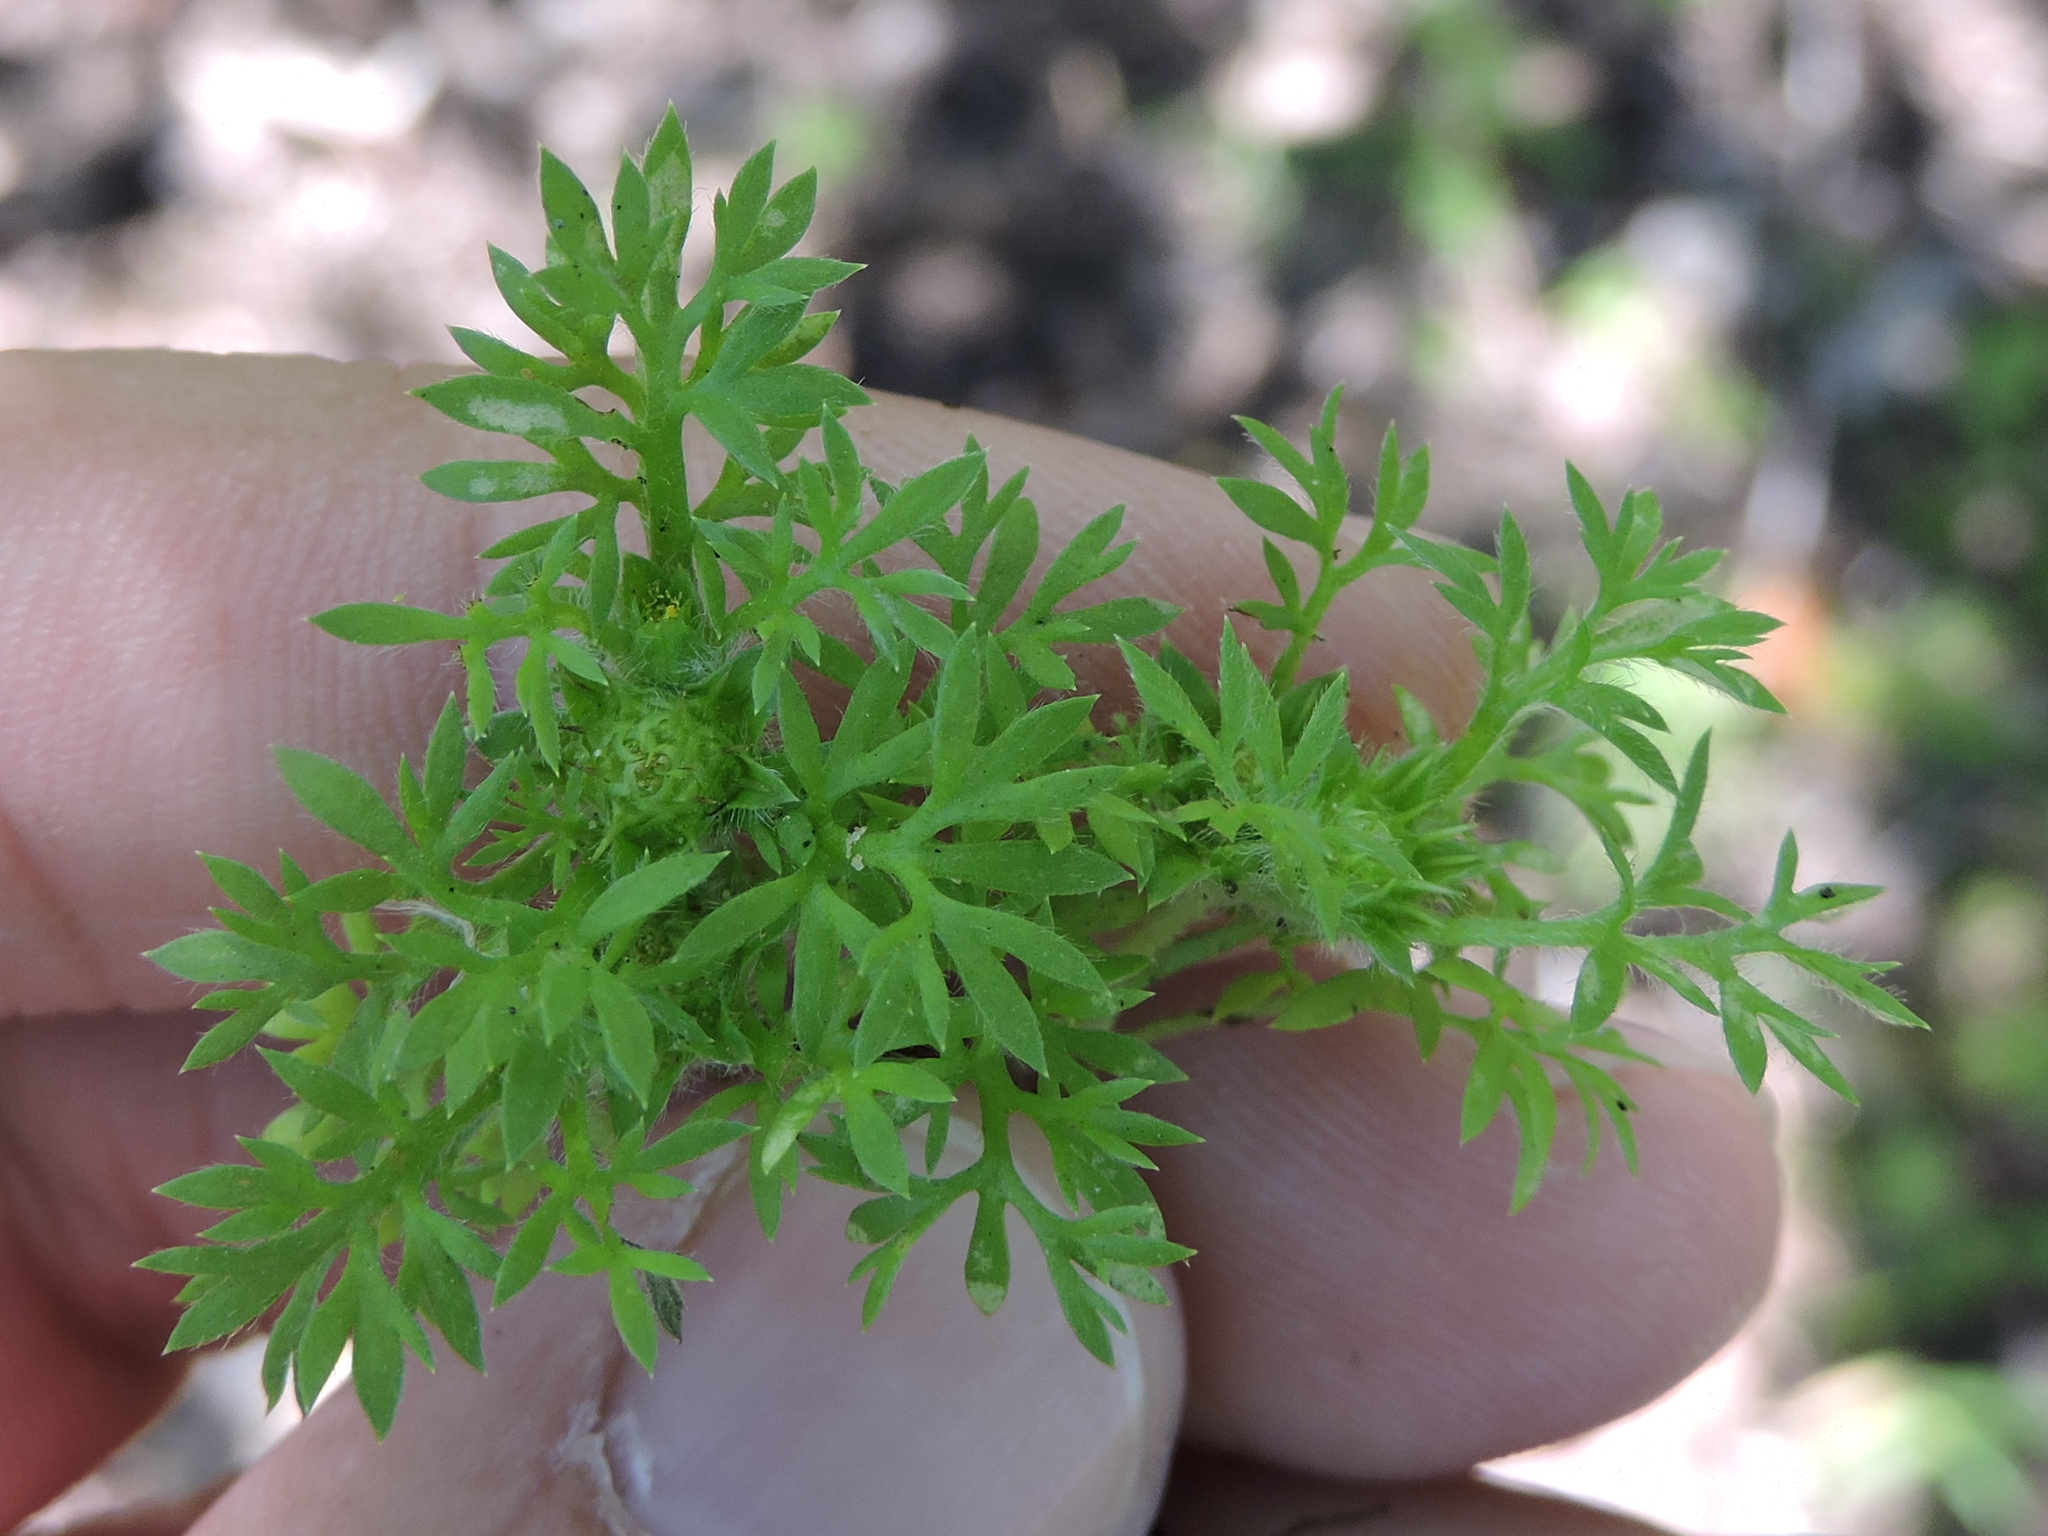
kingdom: Plantae
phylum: Tracheophyta
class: Magnoliopsida
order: Asterales
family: Asteraceae
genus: Soliva
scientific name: Soliva sessilis
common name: Field burrweed
